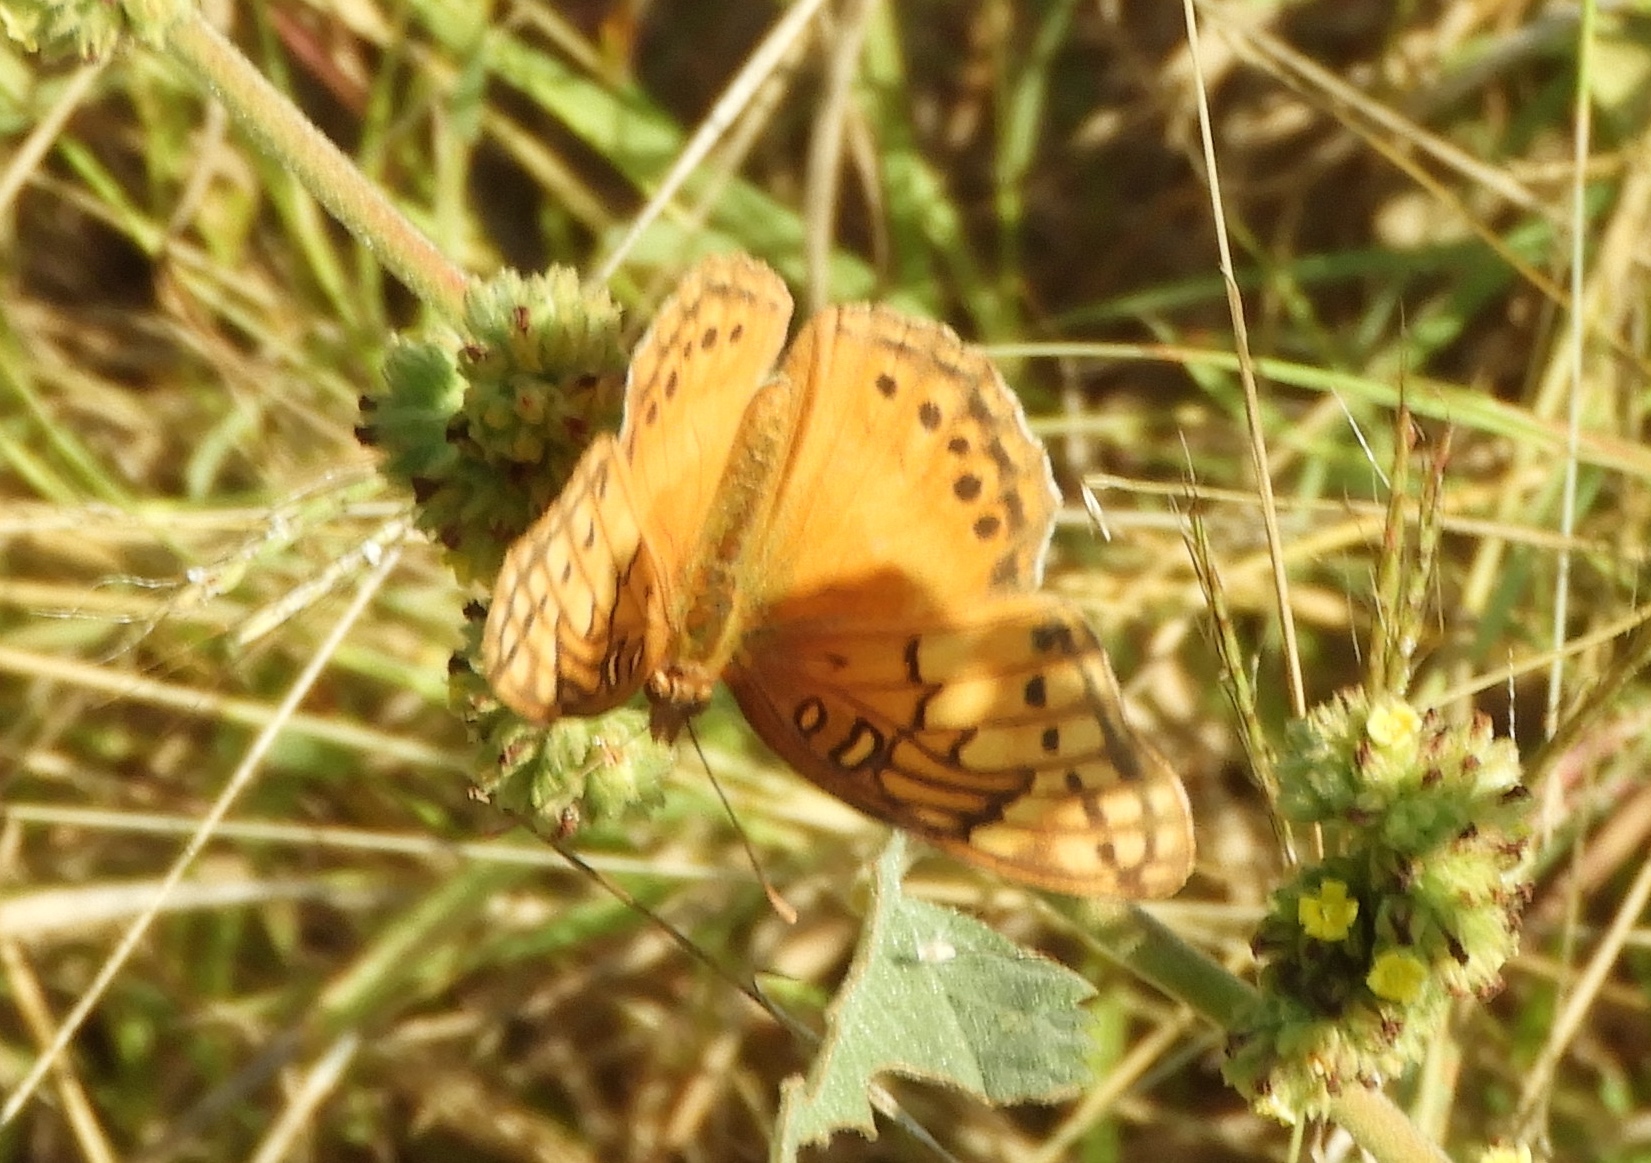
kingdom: Animalia
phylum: Arthropoda
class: Insecta
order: Lepidoptera
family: Nymphalidae
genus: Euptoieta
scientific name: Euptoieta hegesia
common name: Mexican fritillary
